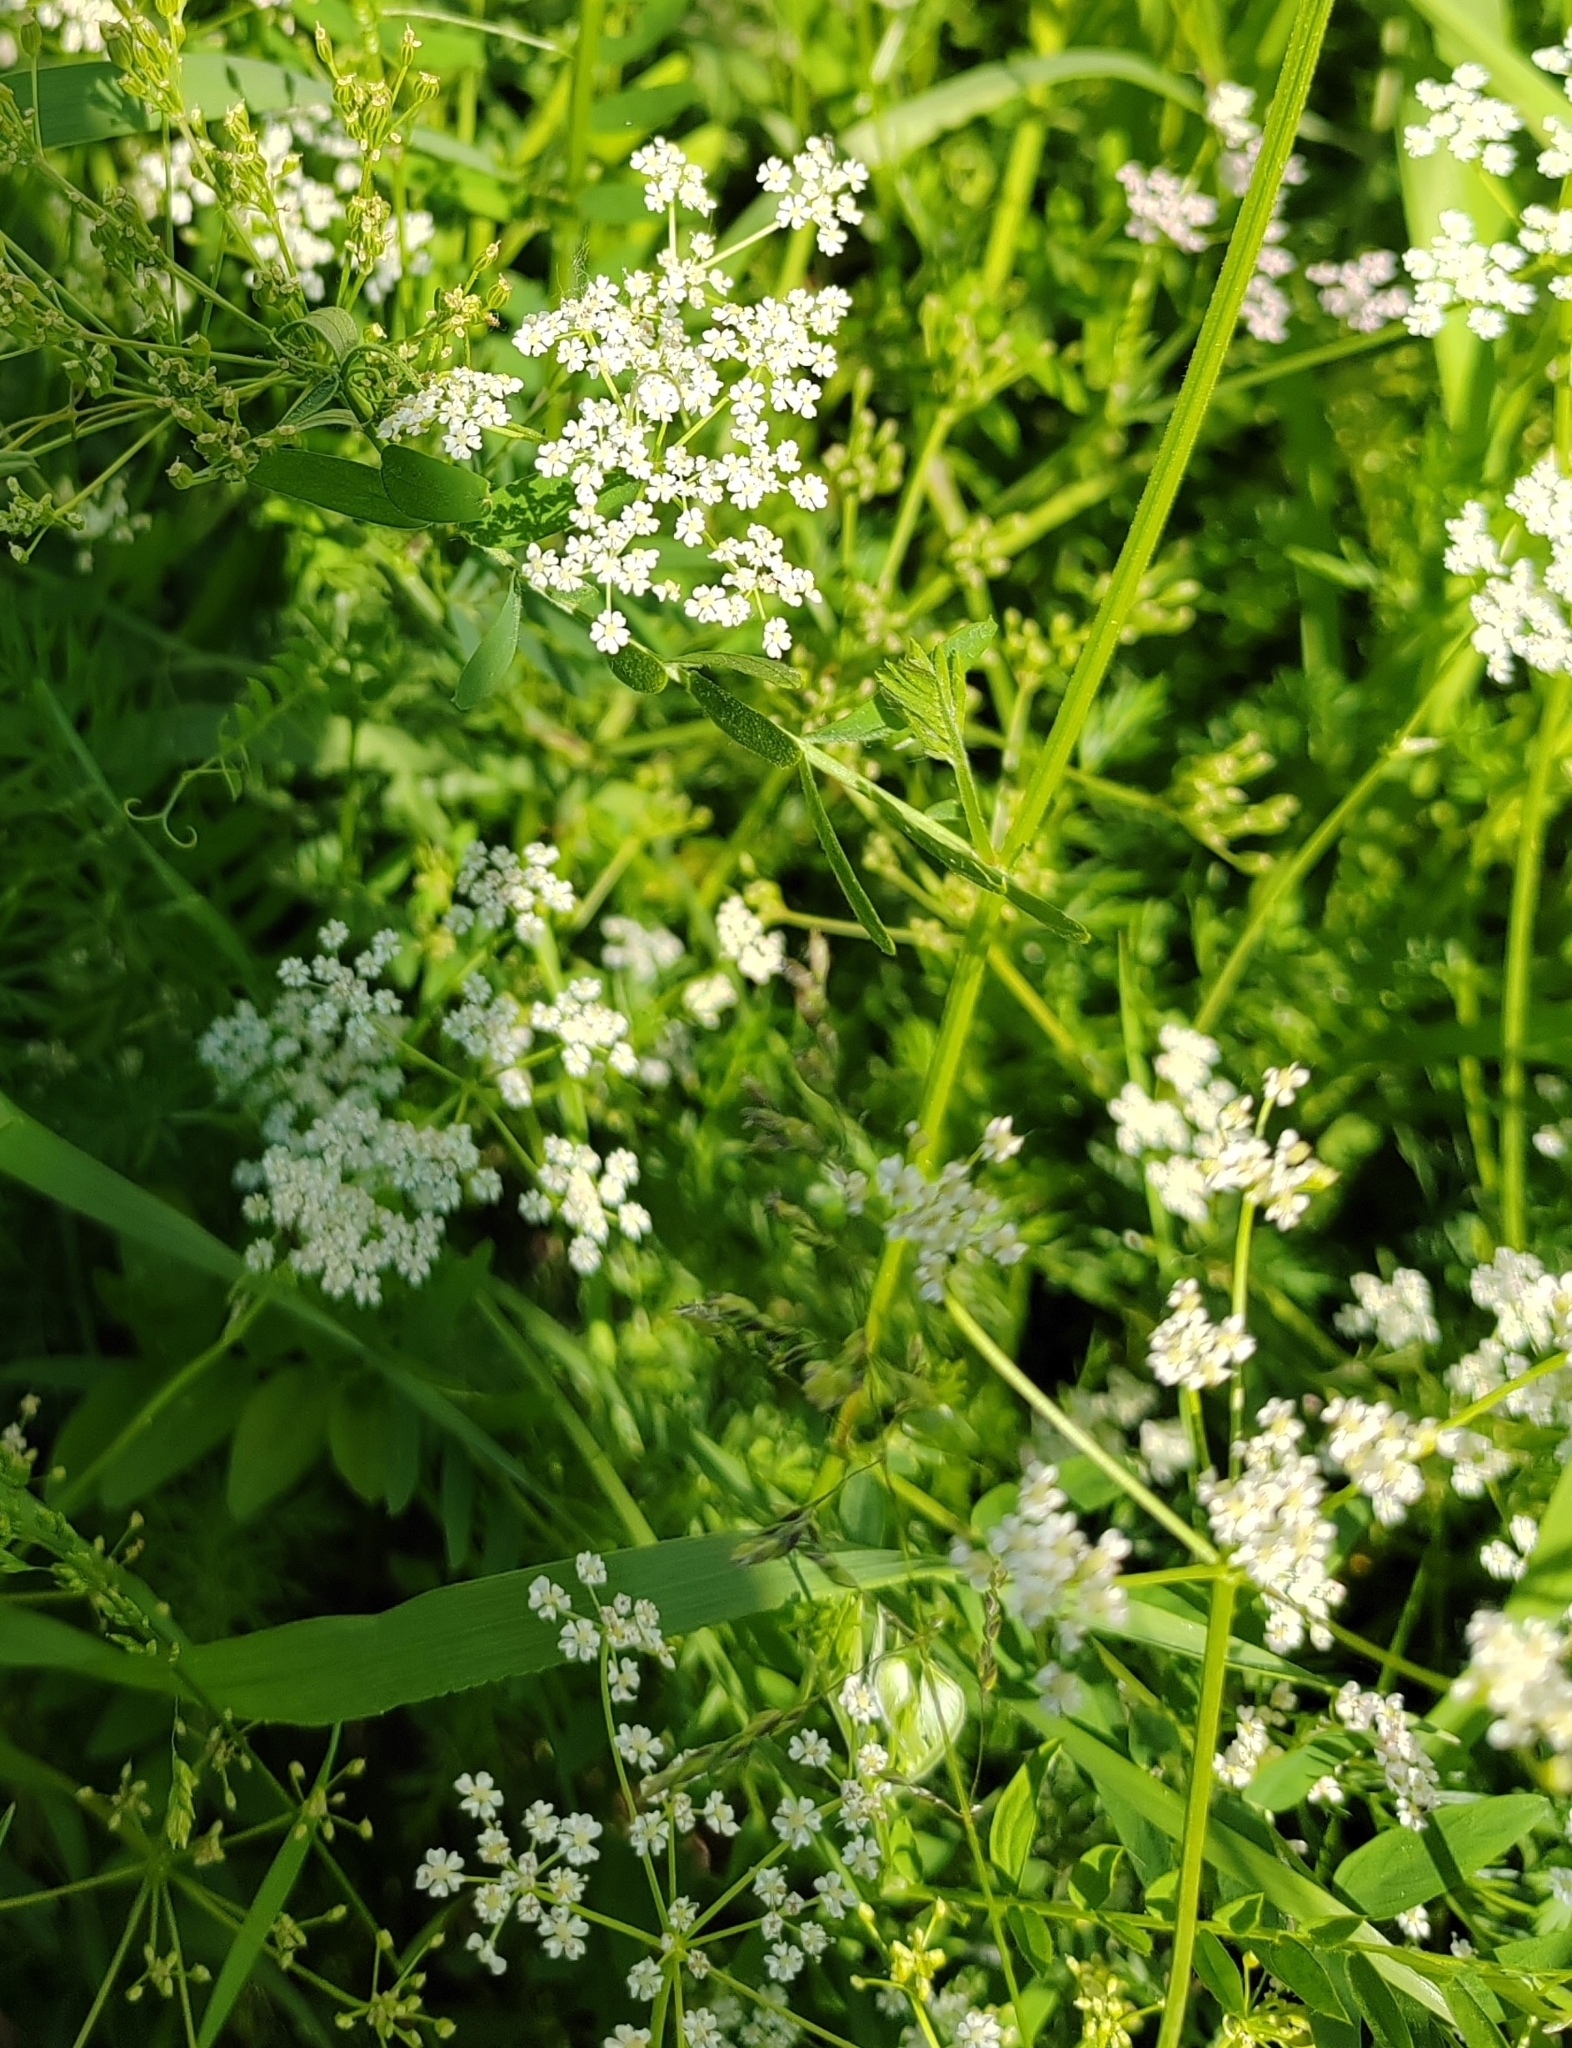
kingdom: Plantae
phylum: Tracheophyta
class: Magnoliopsida
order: Apiales
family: Apiaceae
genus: Carum
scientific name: Carum carvi
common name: Caraway
